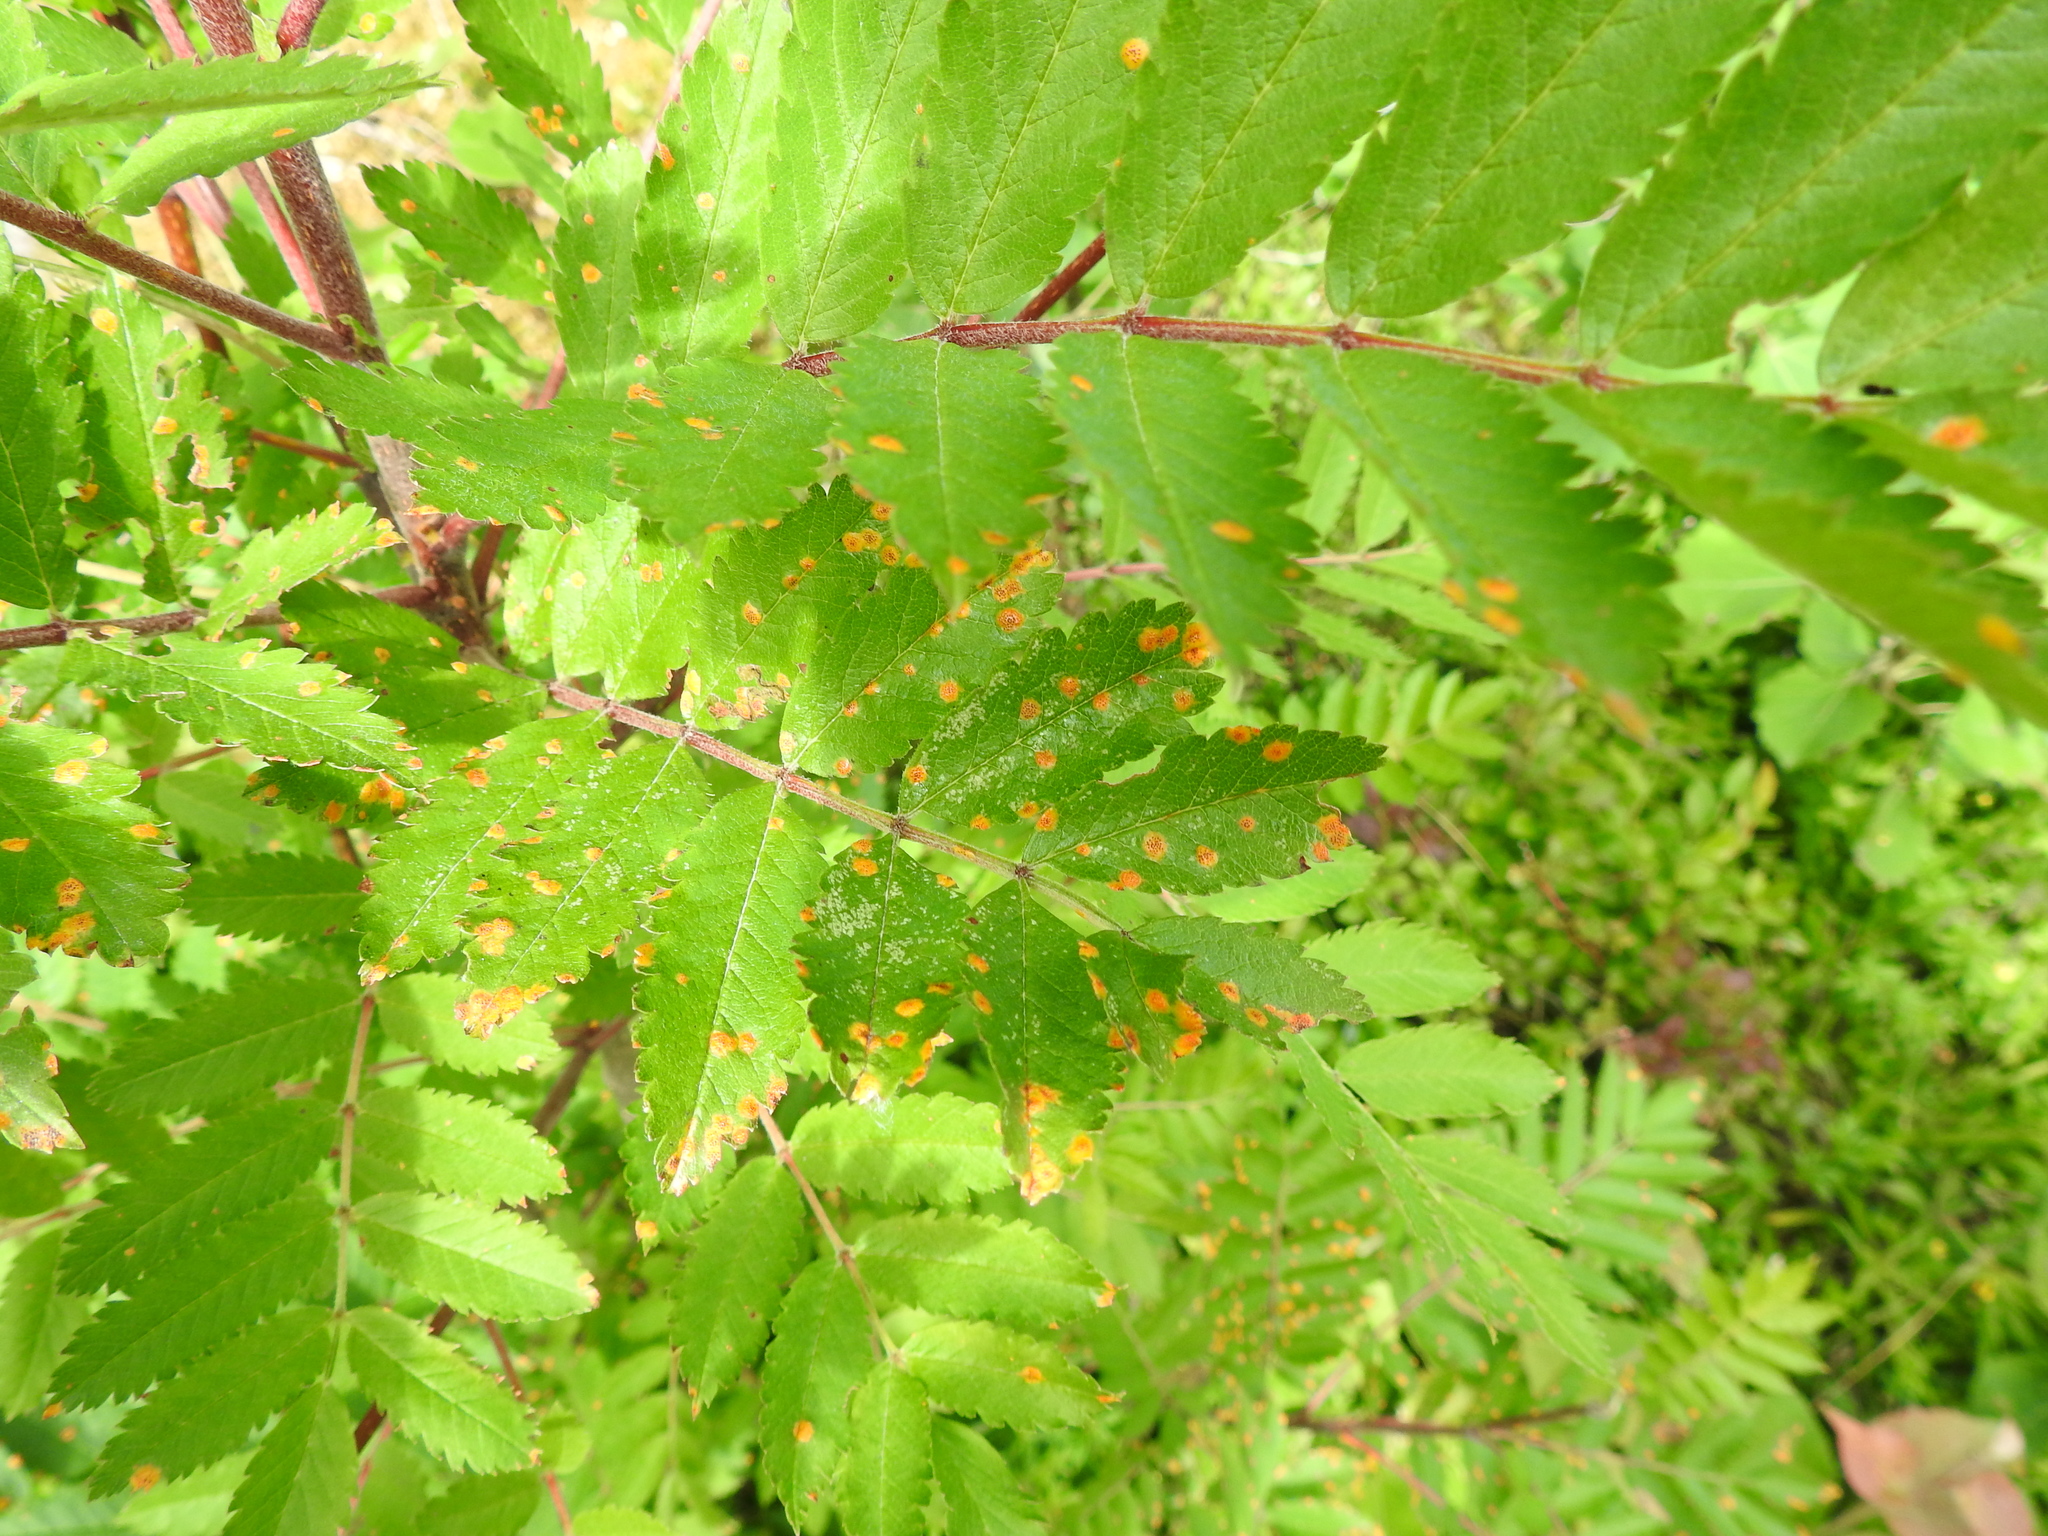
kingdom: Plantae
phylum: Tracheophyta
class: Magnoliopsida
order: Rosales
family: Rosaceae
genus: Sorbus
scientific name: Sorbus aucuparia
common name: Rowan
